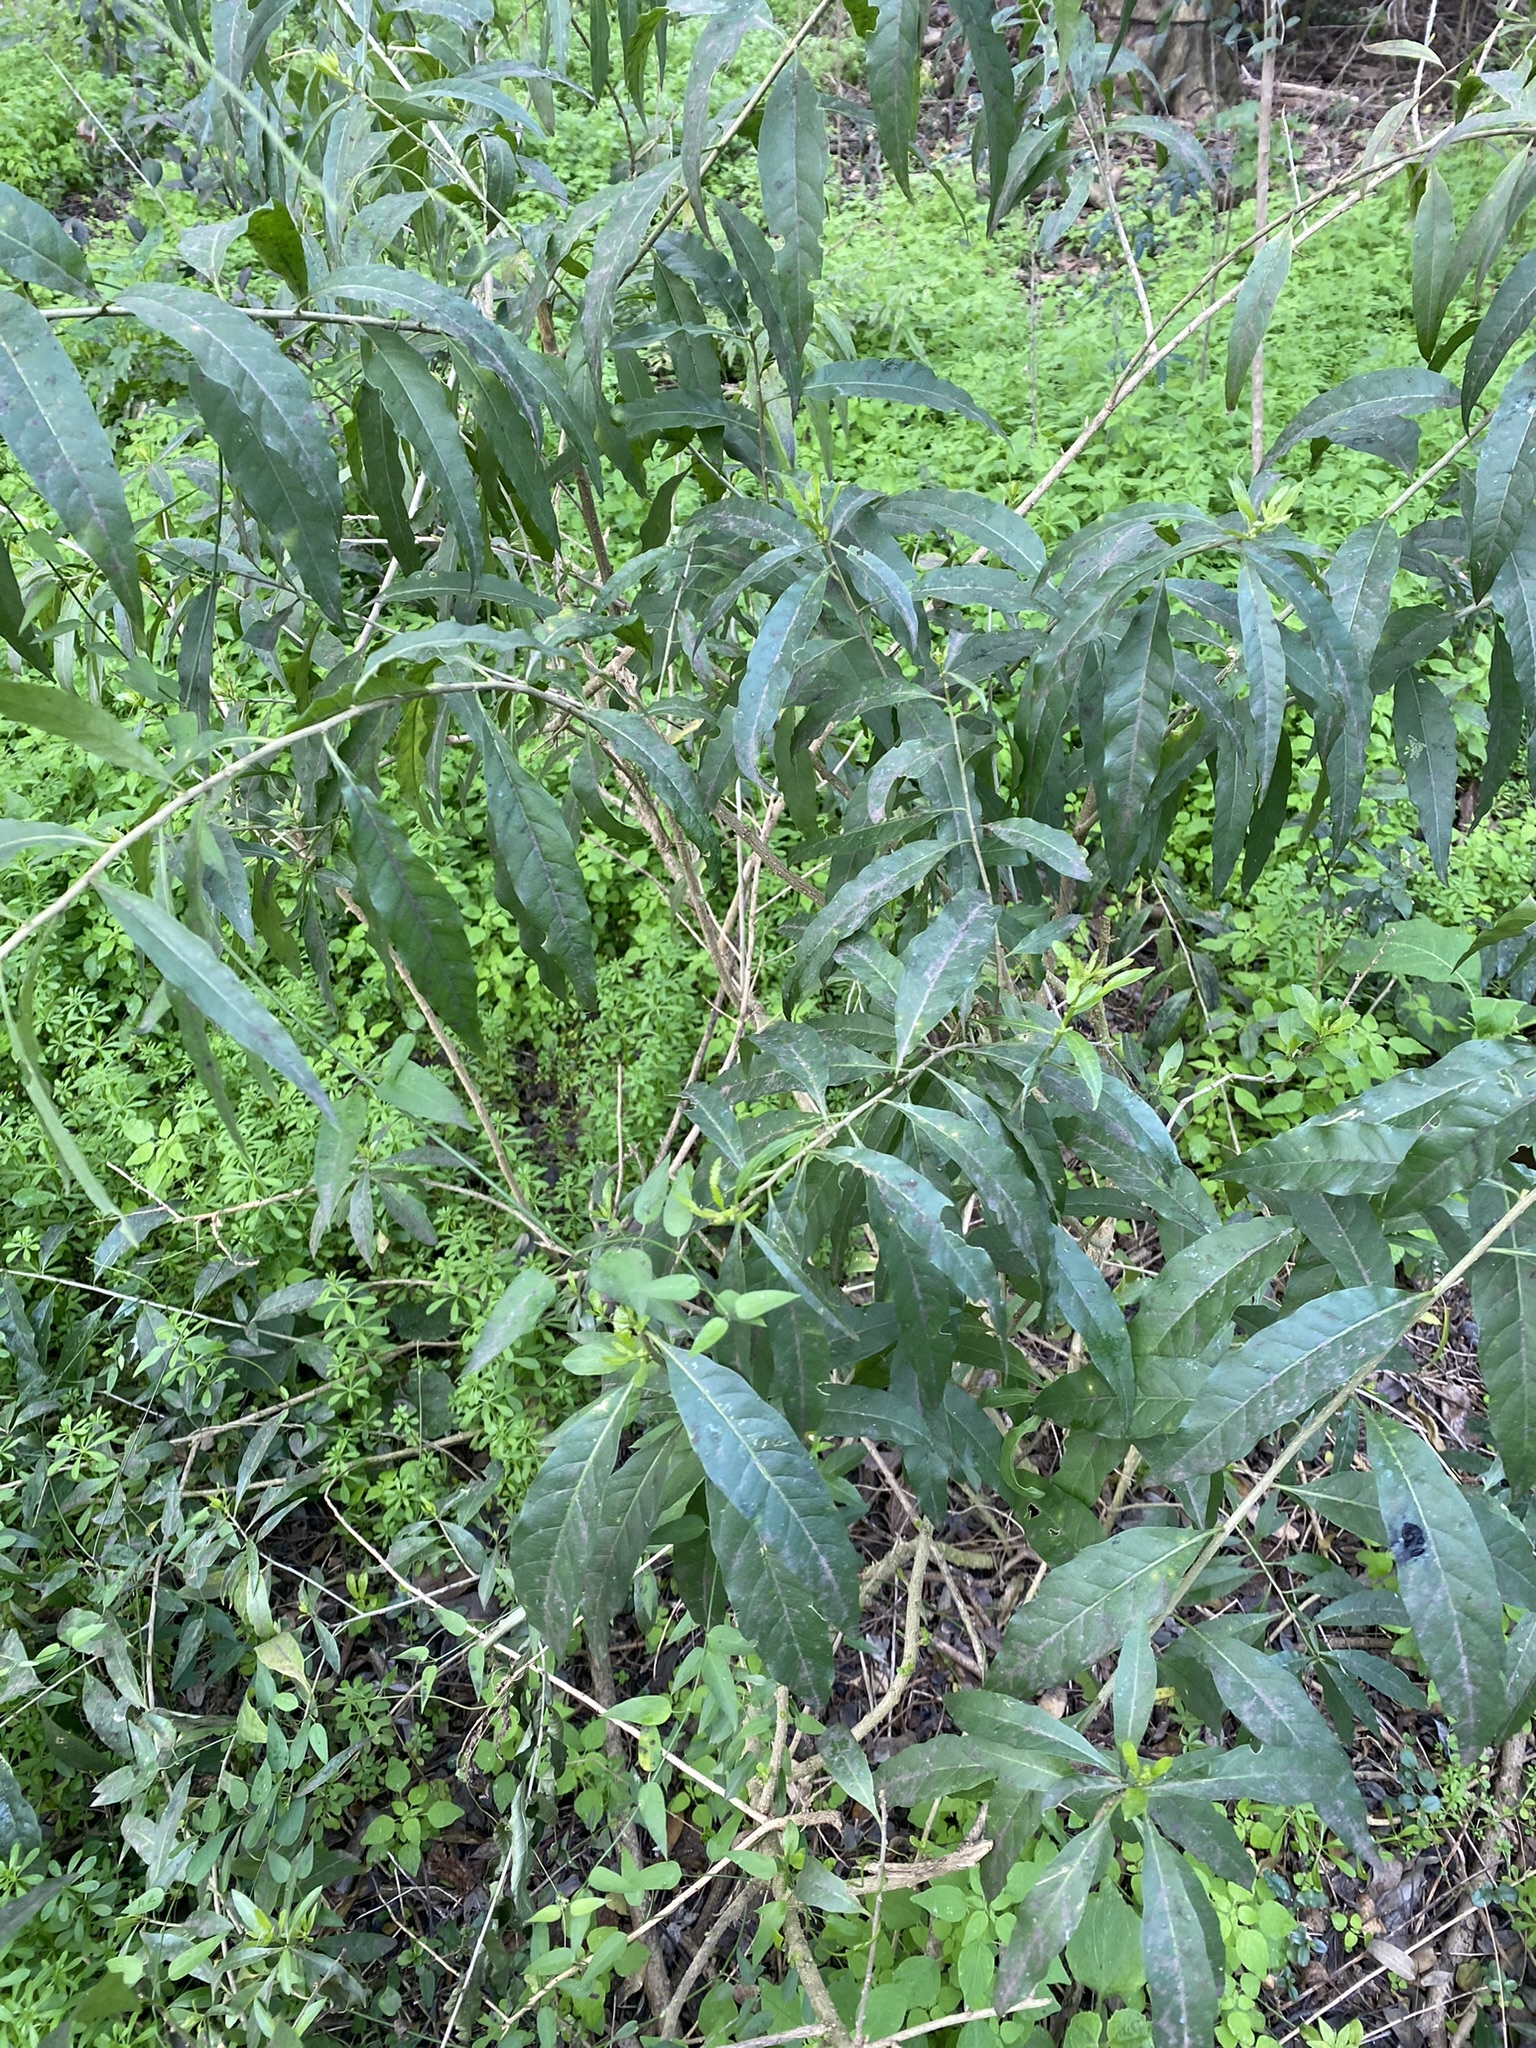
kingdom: Plantae
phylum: Tracheophyta
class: Magnoliopsida
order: Solanales
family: Solanaceae
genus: Cestrum
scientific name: Cestrum parqui
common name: Chilean cestrum
